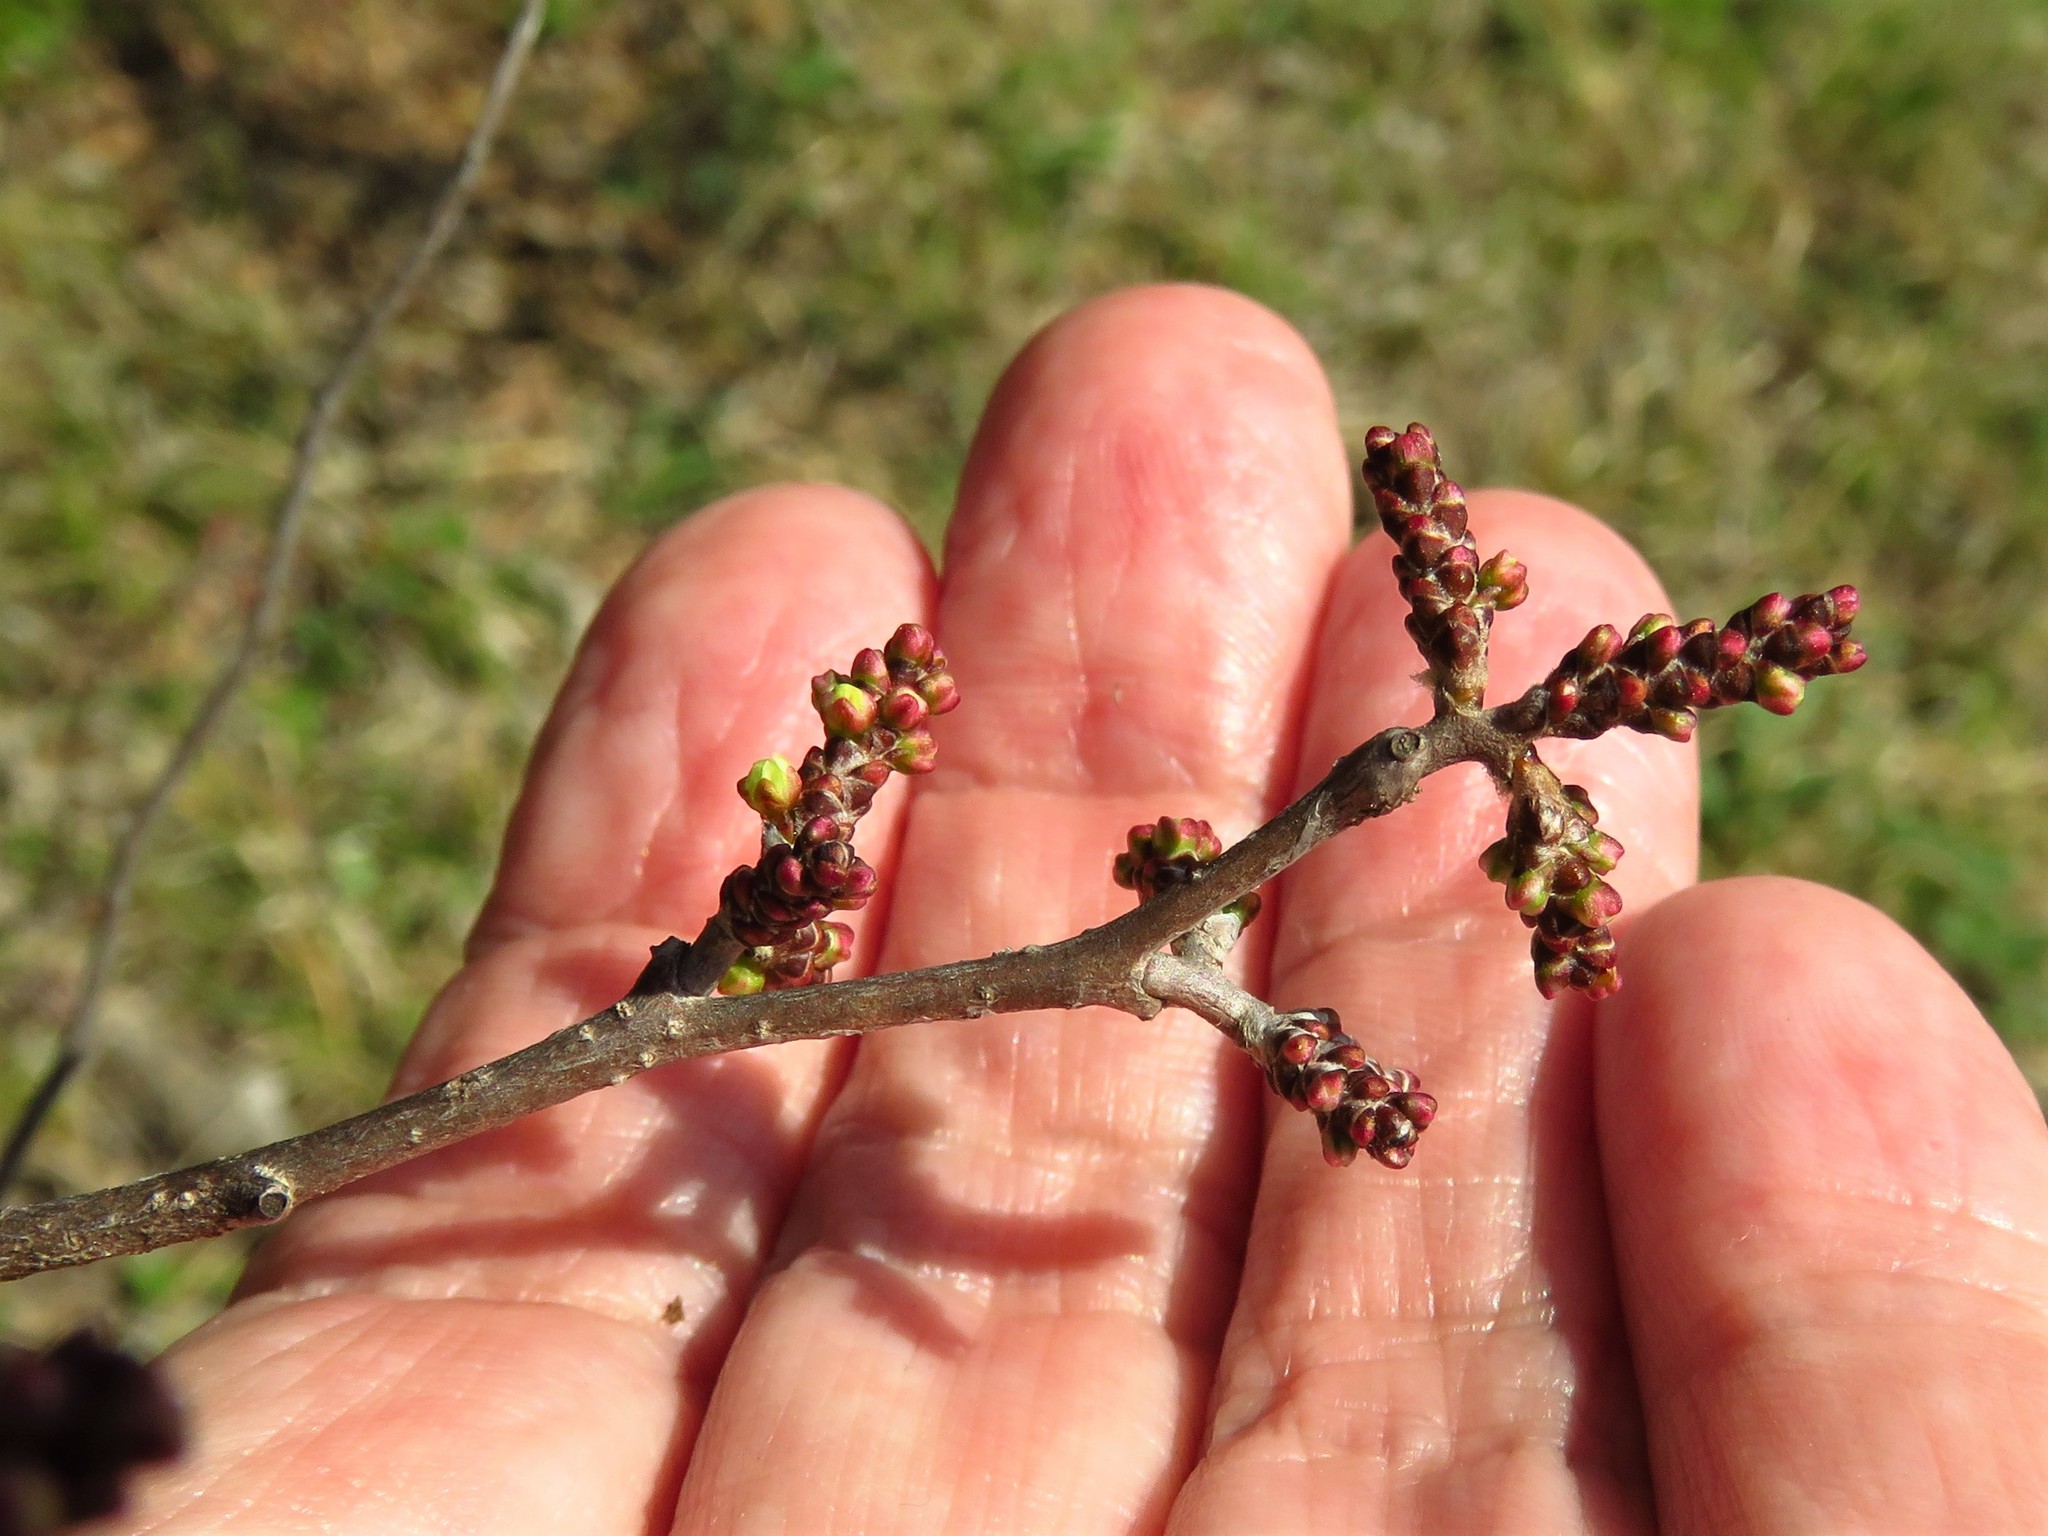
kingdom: Plantae
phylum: Tracheophyta
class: Magnoliopsida
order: Sapindales
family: Anacardiaceae
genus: Rhus
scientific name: Rhus aromatica
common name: Aromatic sumac
